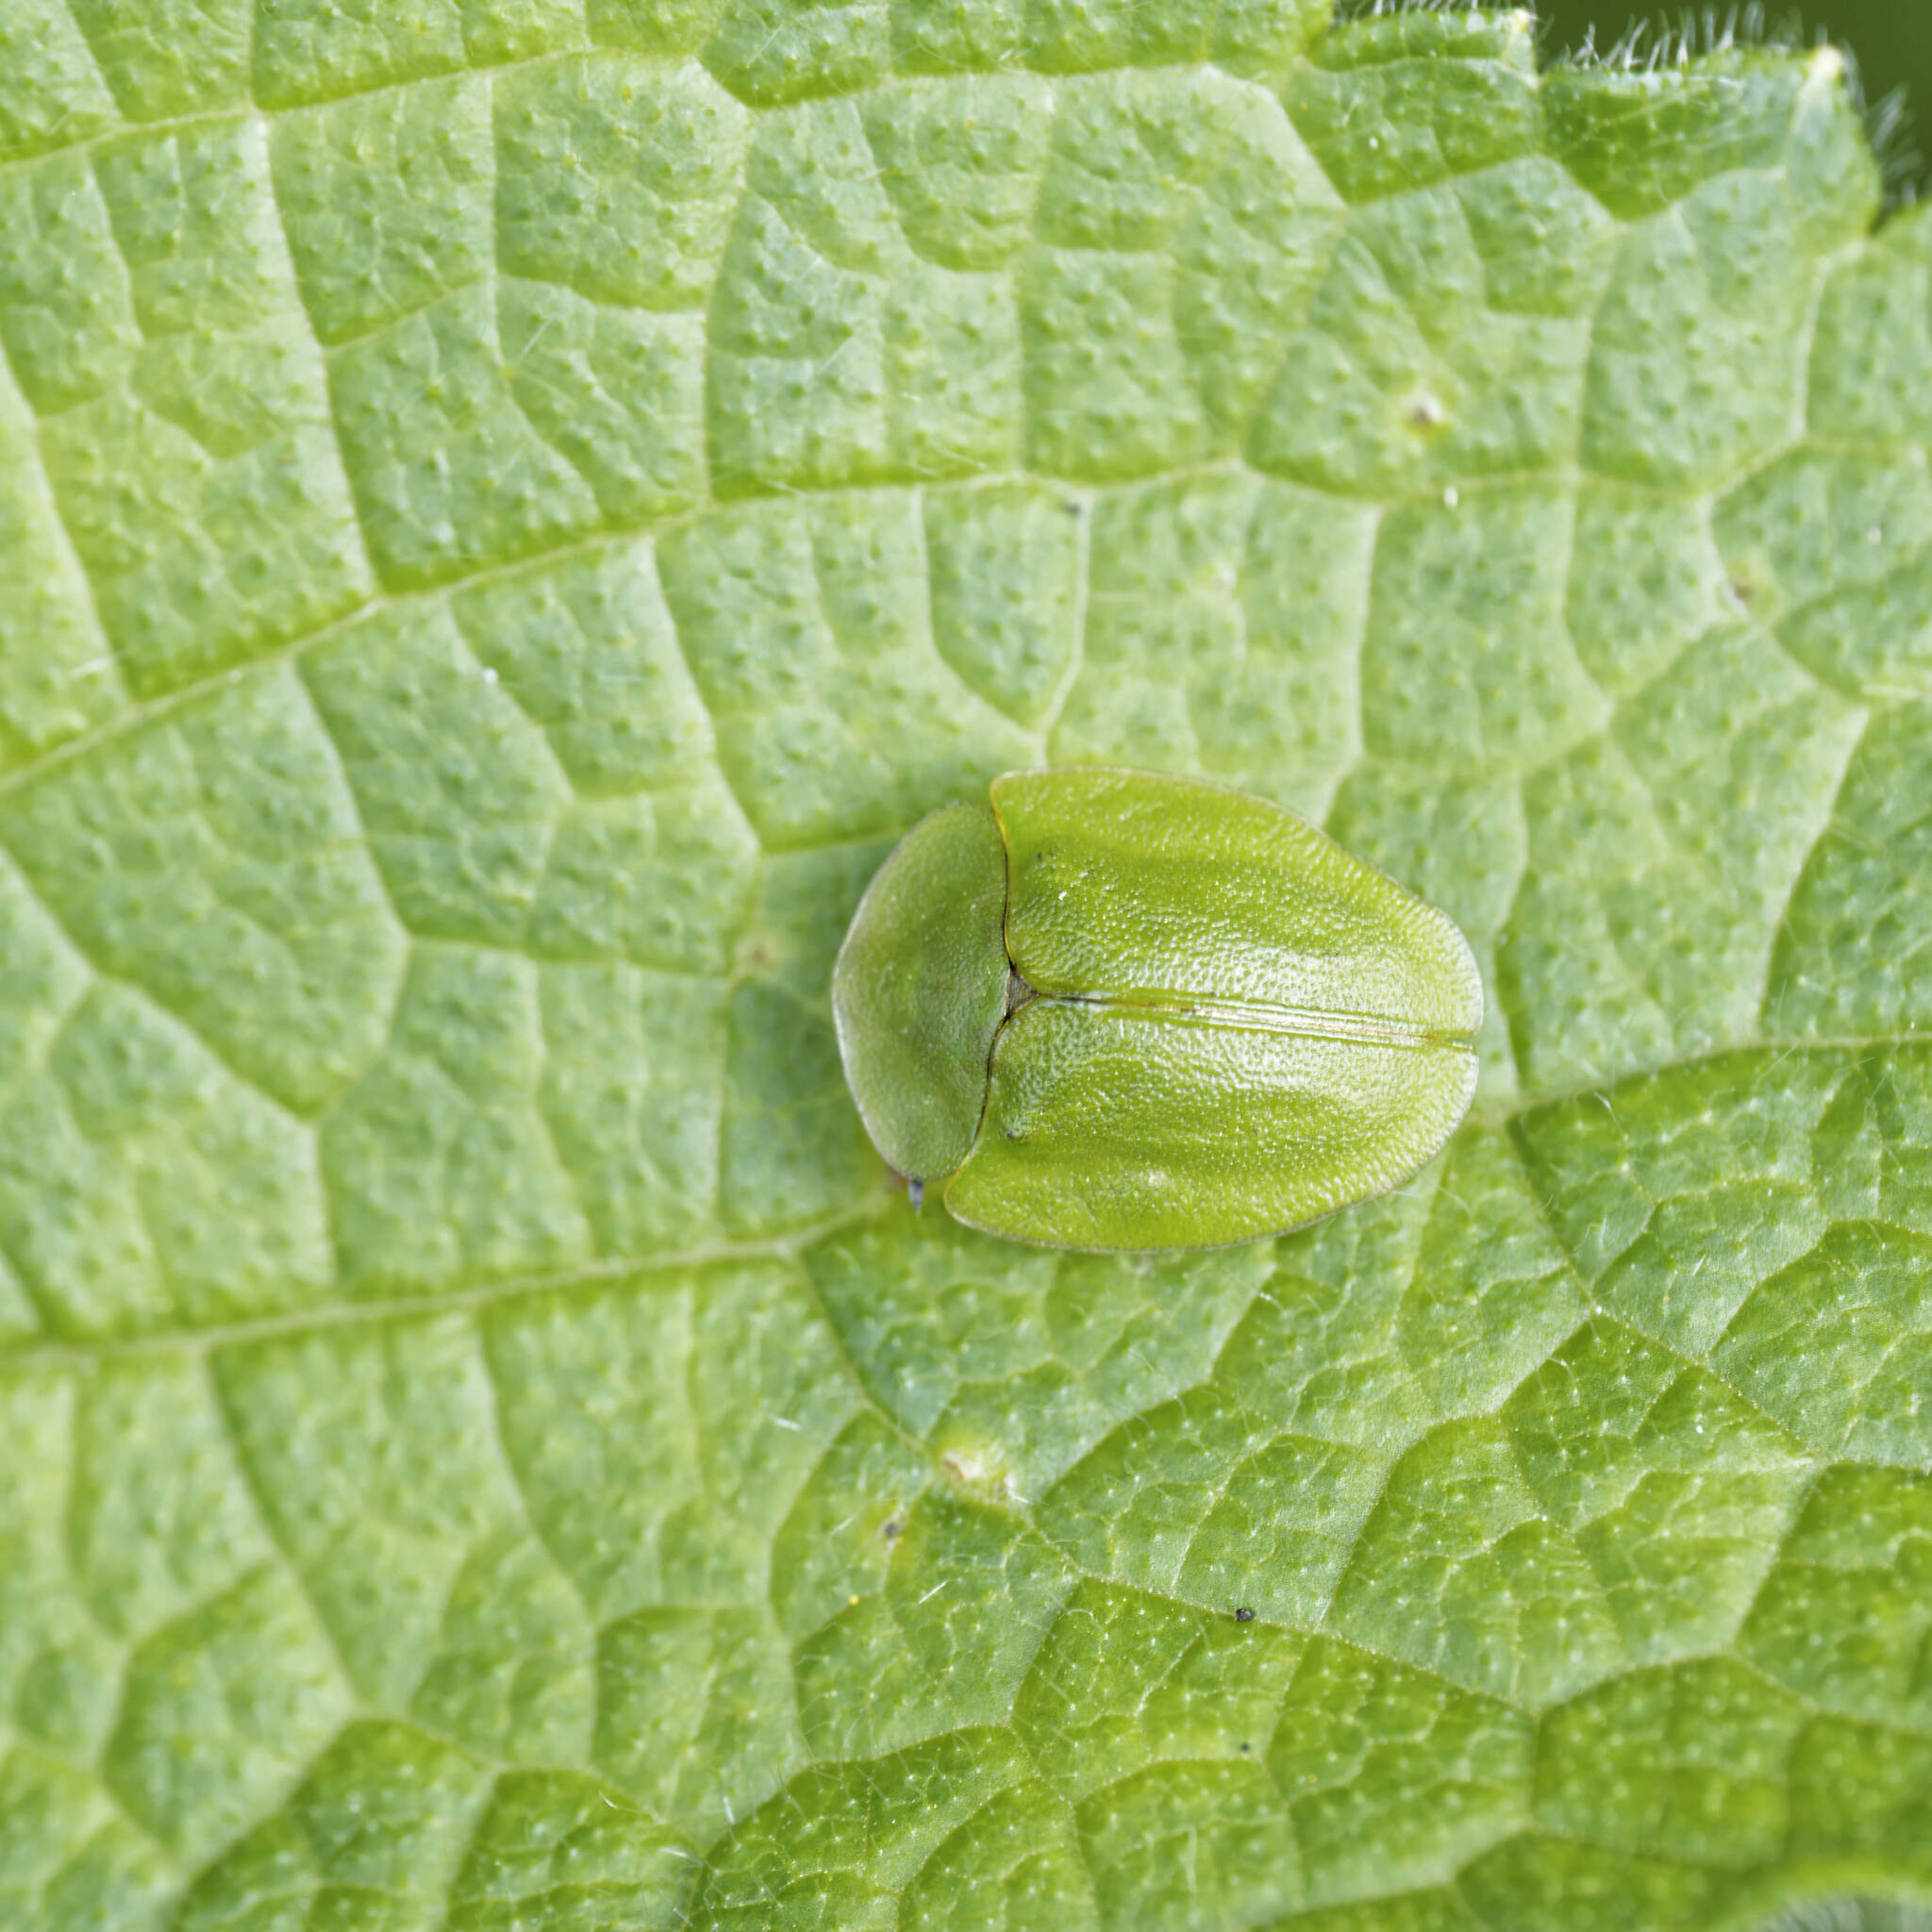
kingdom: Animalia
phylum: Arthropoda
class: Insecta
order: Coleoptera
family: Chrysomelidae
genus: Cassida
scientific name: Cassida viridis
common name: Green tortoise beetle
